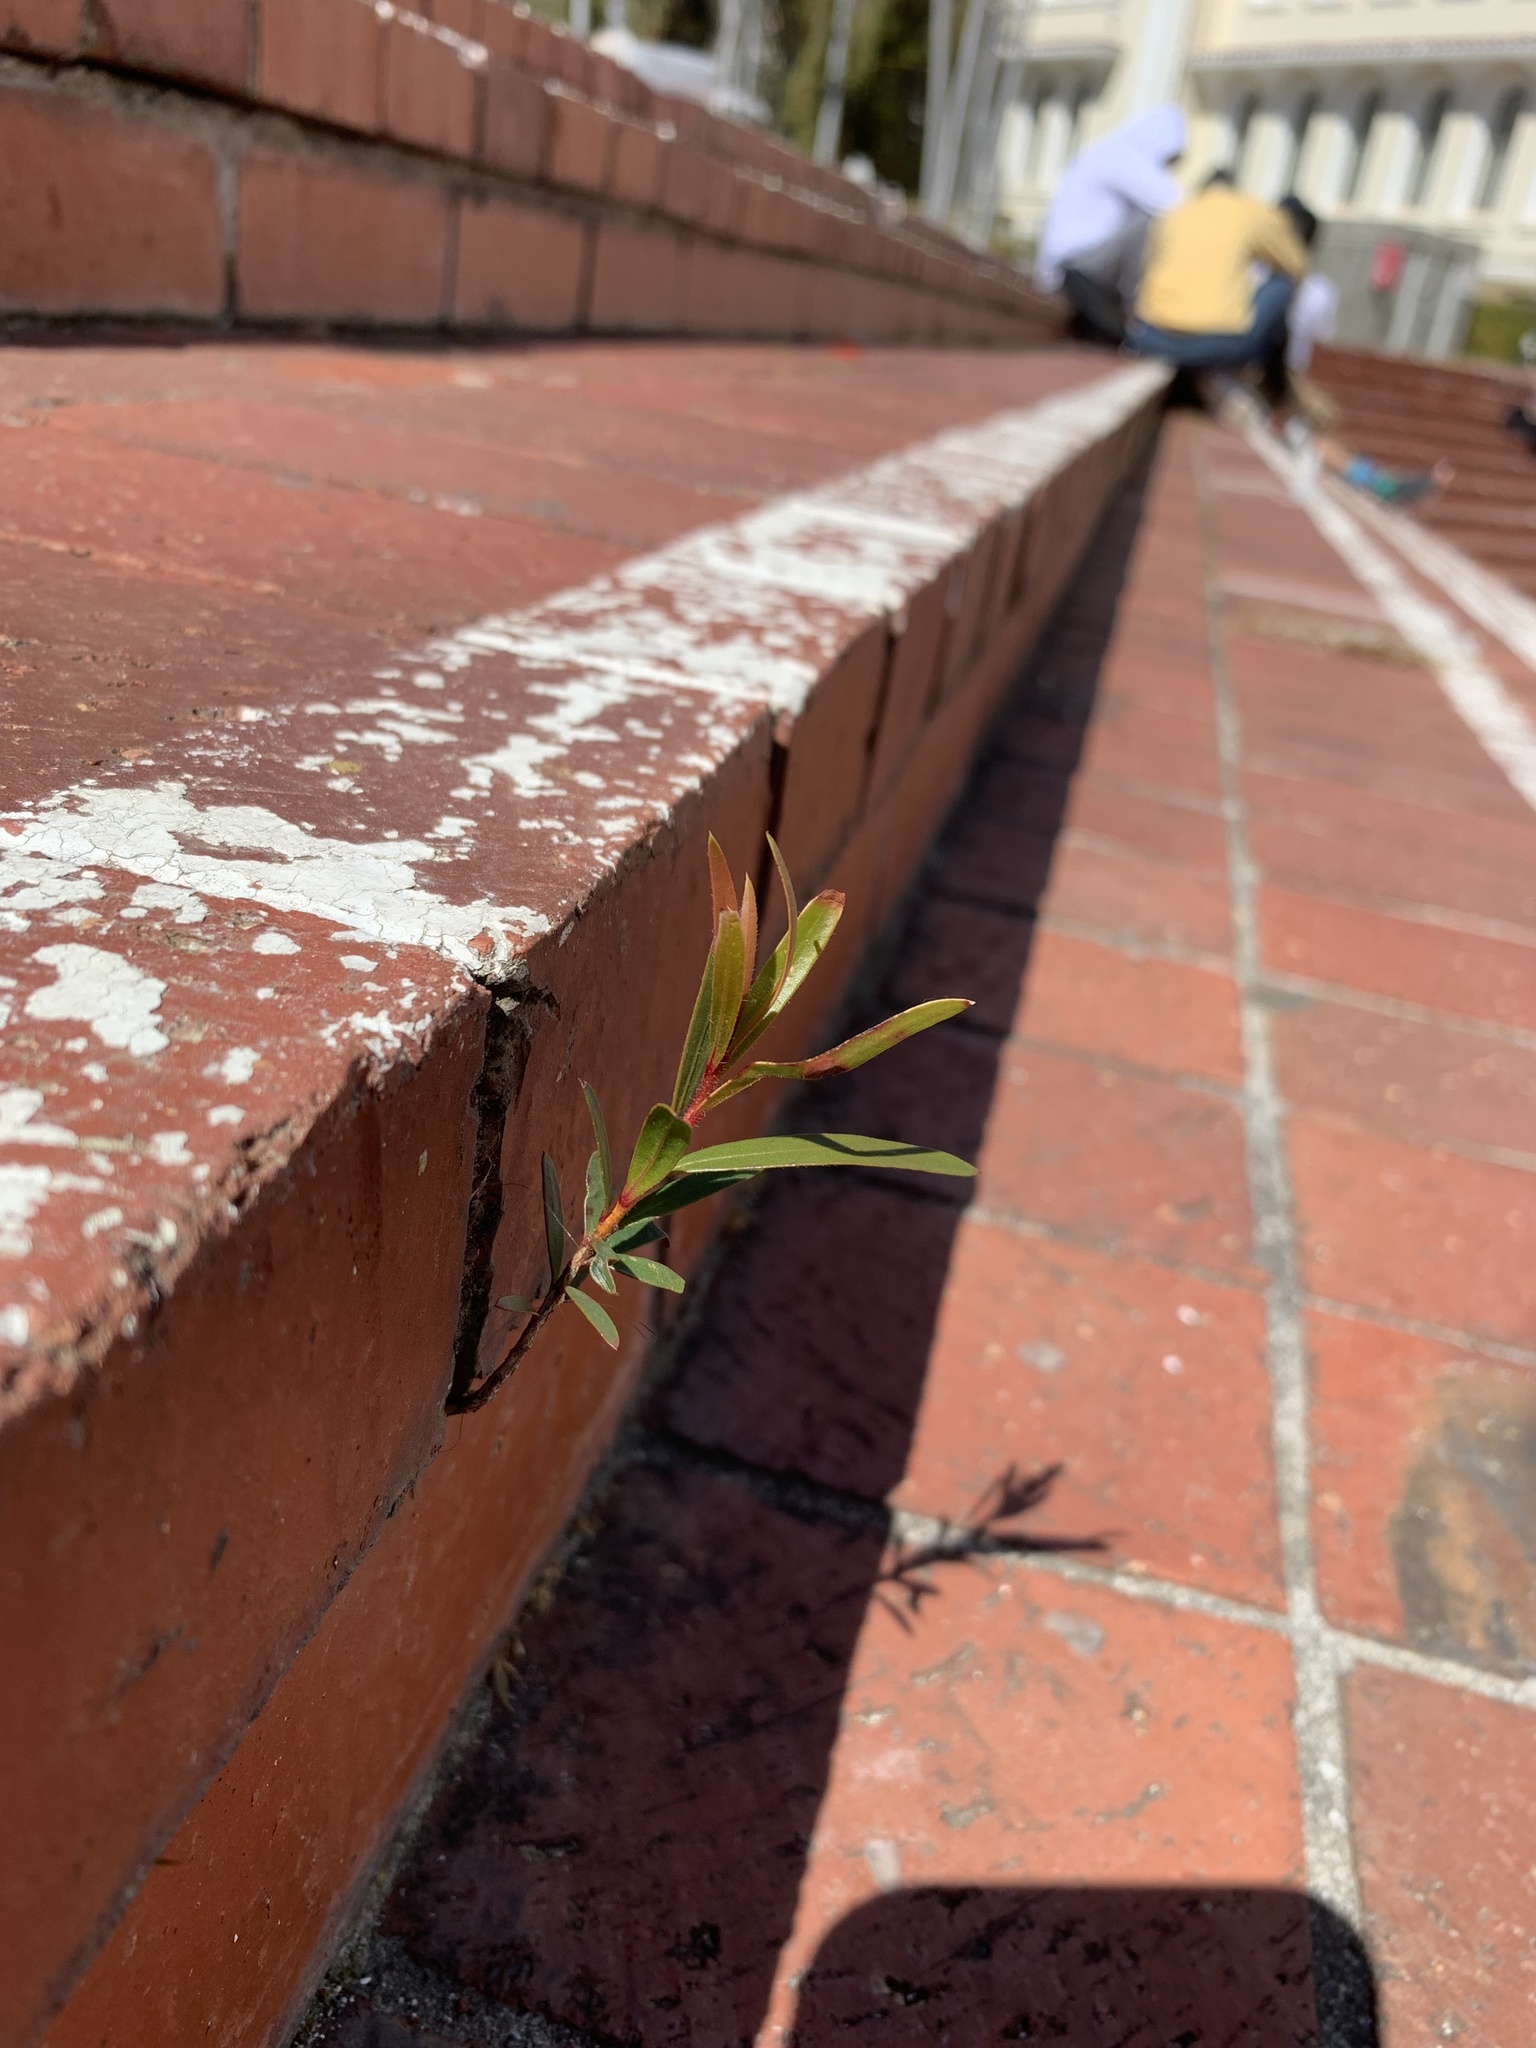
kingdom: Plantae
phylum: Tracheophyta
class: Magnoliopsida
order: Myrtales
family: Myrtaceae
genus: Callistemon
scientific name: Callistemon viminalis
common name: Drooping bottlebrush
